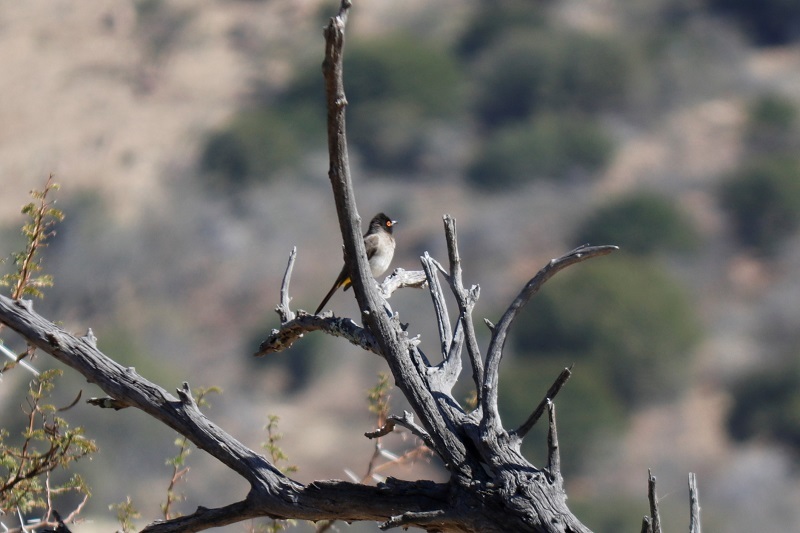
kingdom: Animalia
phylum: Chordata
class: Aves
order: Passeriformes
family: Pycnonotidae
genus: Pycnonotus
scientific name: Pycnonotus nigricans
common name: African red-eyed bulbul
